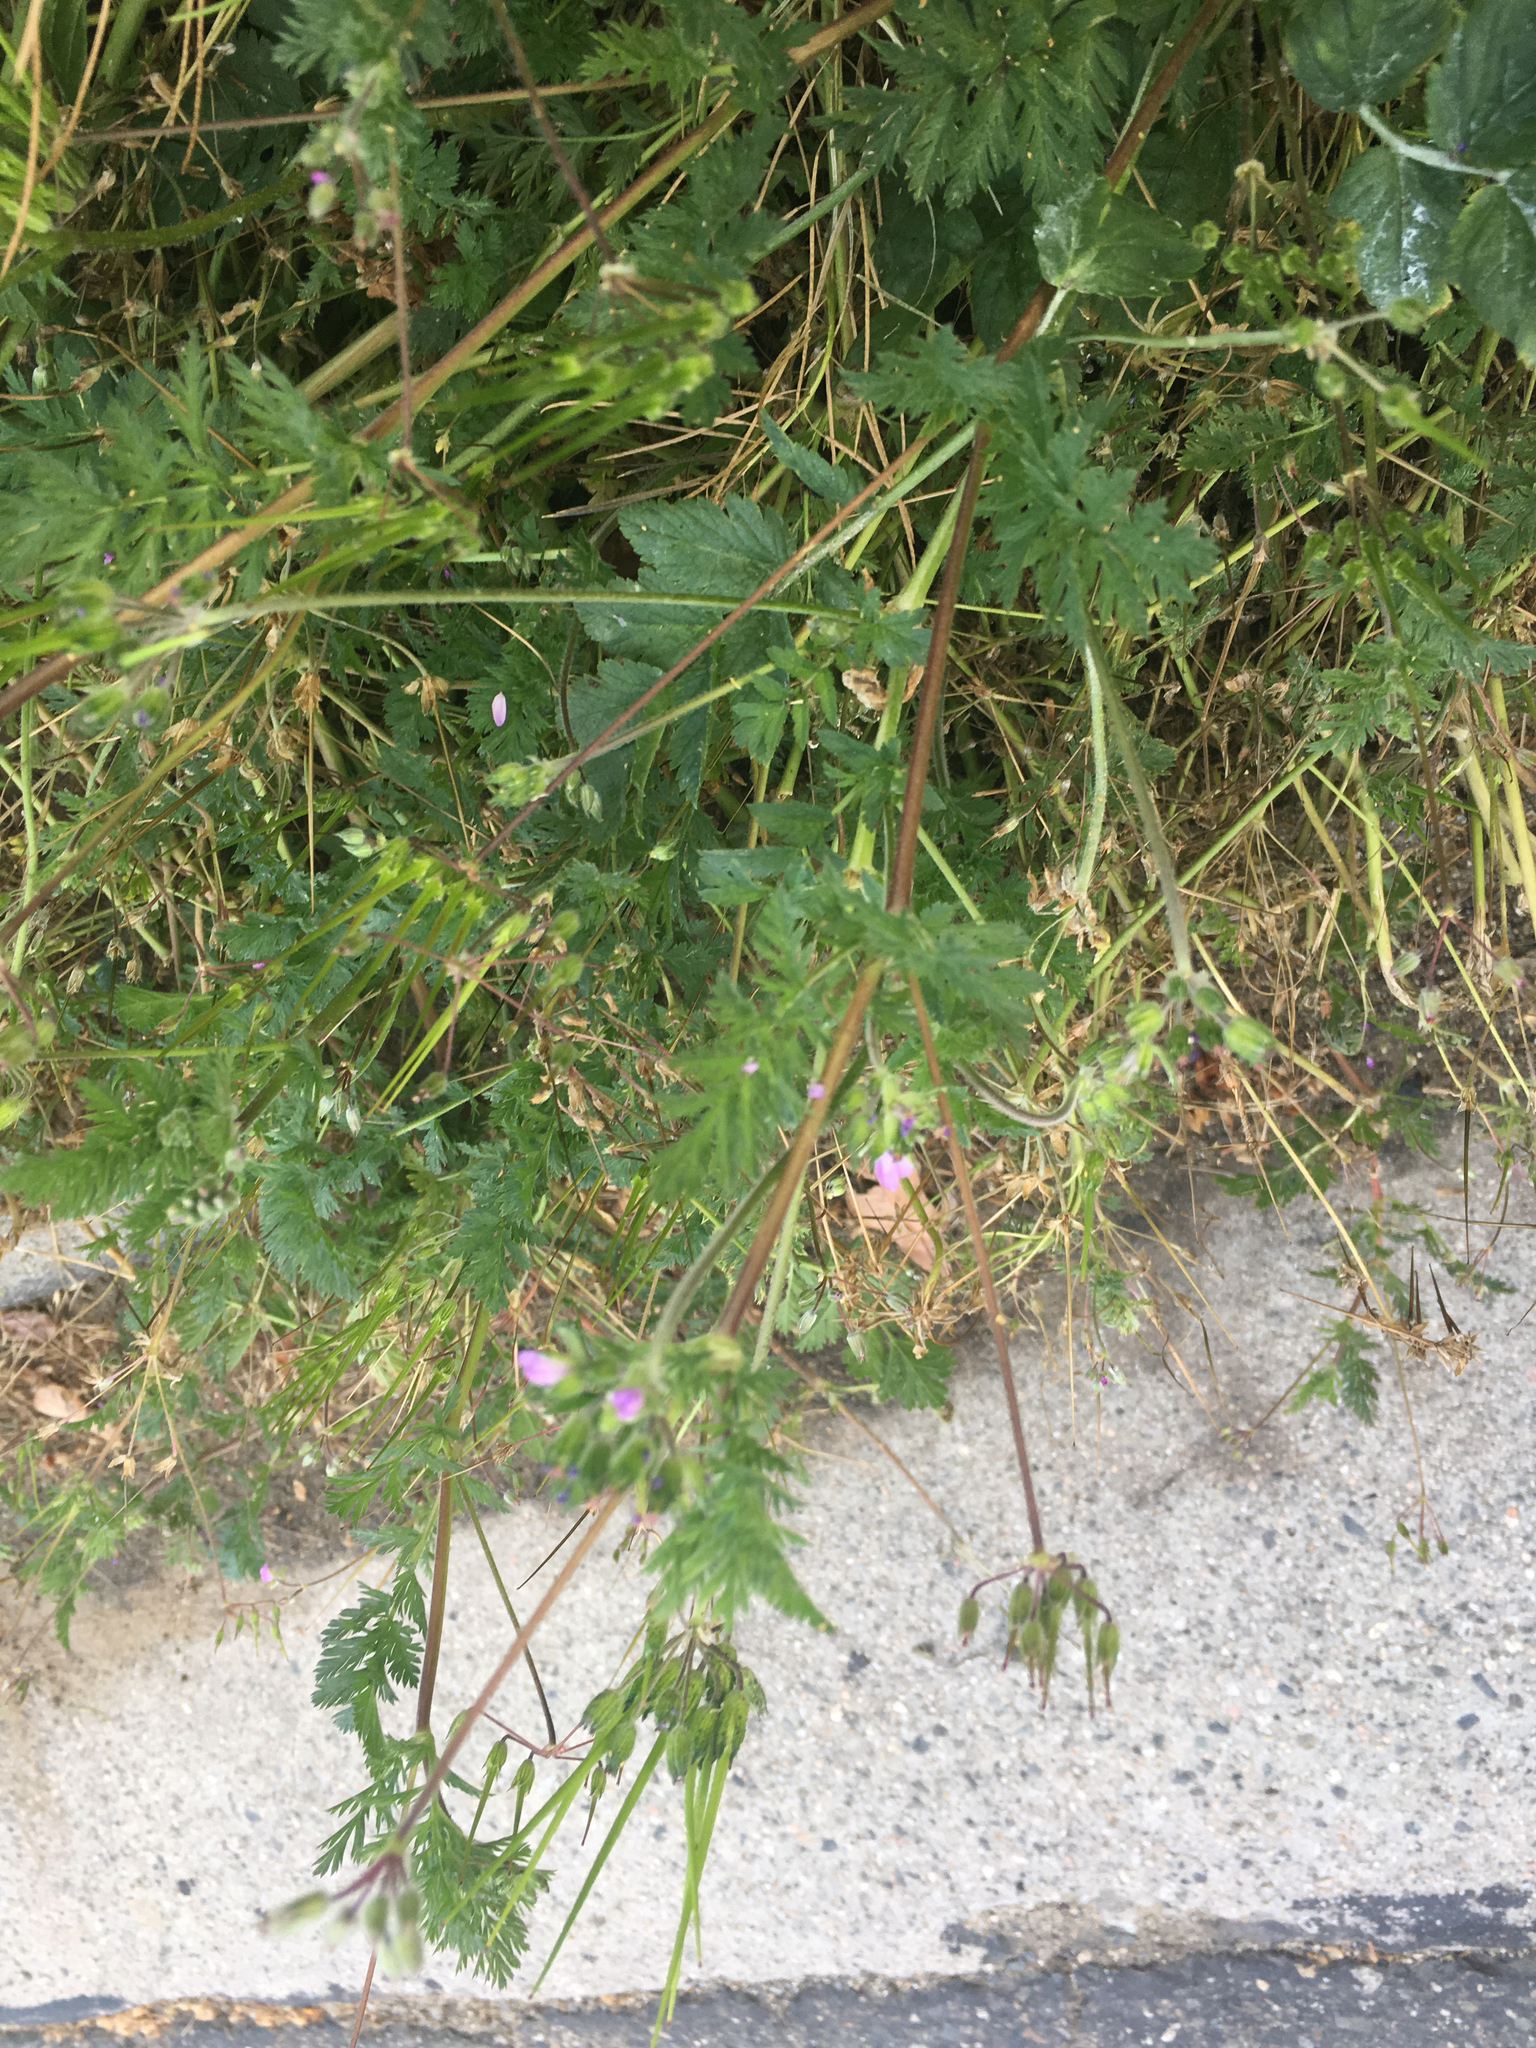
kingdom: Plantae
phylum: Tracheophyta
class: Magnoliopsida
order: Geraniales
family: Geraniaceae
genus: Erodium
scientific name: Erodium cicutarium
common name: Common stork's-bill
